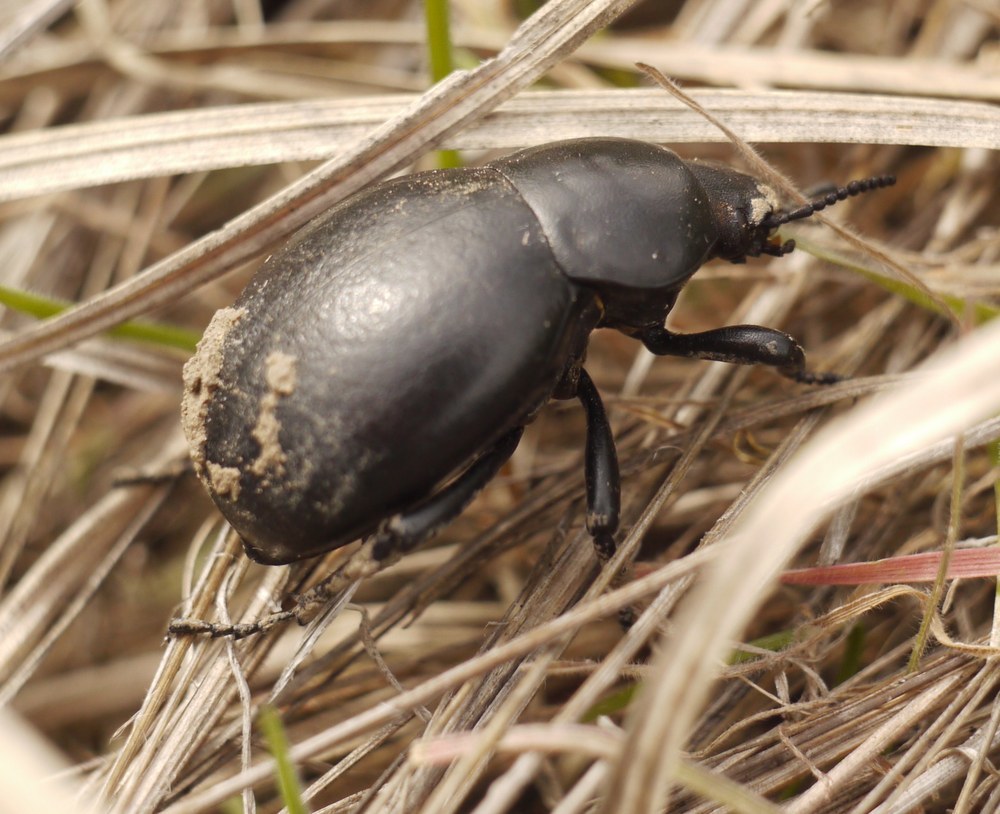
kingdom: Animalia
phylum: Arthropoda
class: Insecta
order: Coleoptera
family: Tenebrionidae
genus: Gnaptor
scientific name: Gnaptor spinimanus
